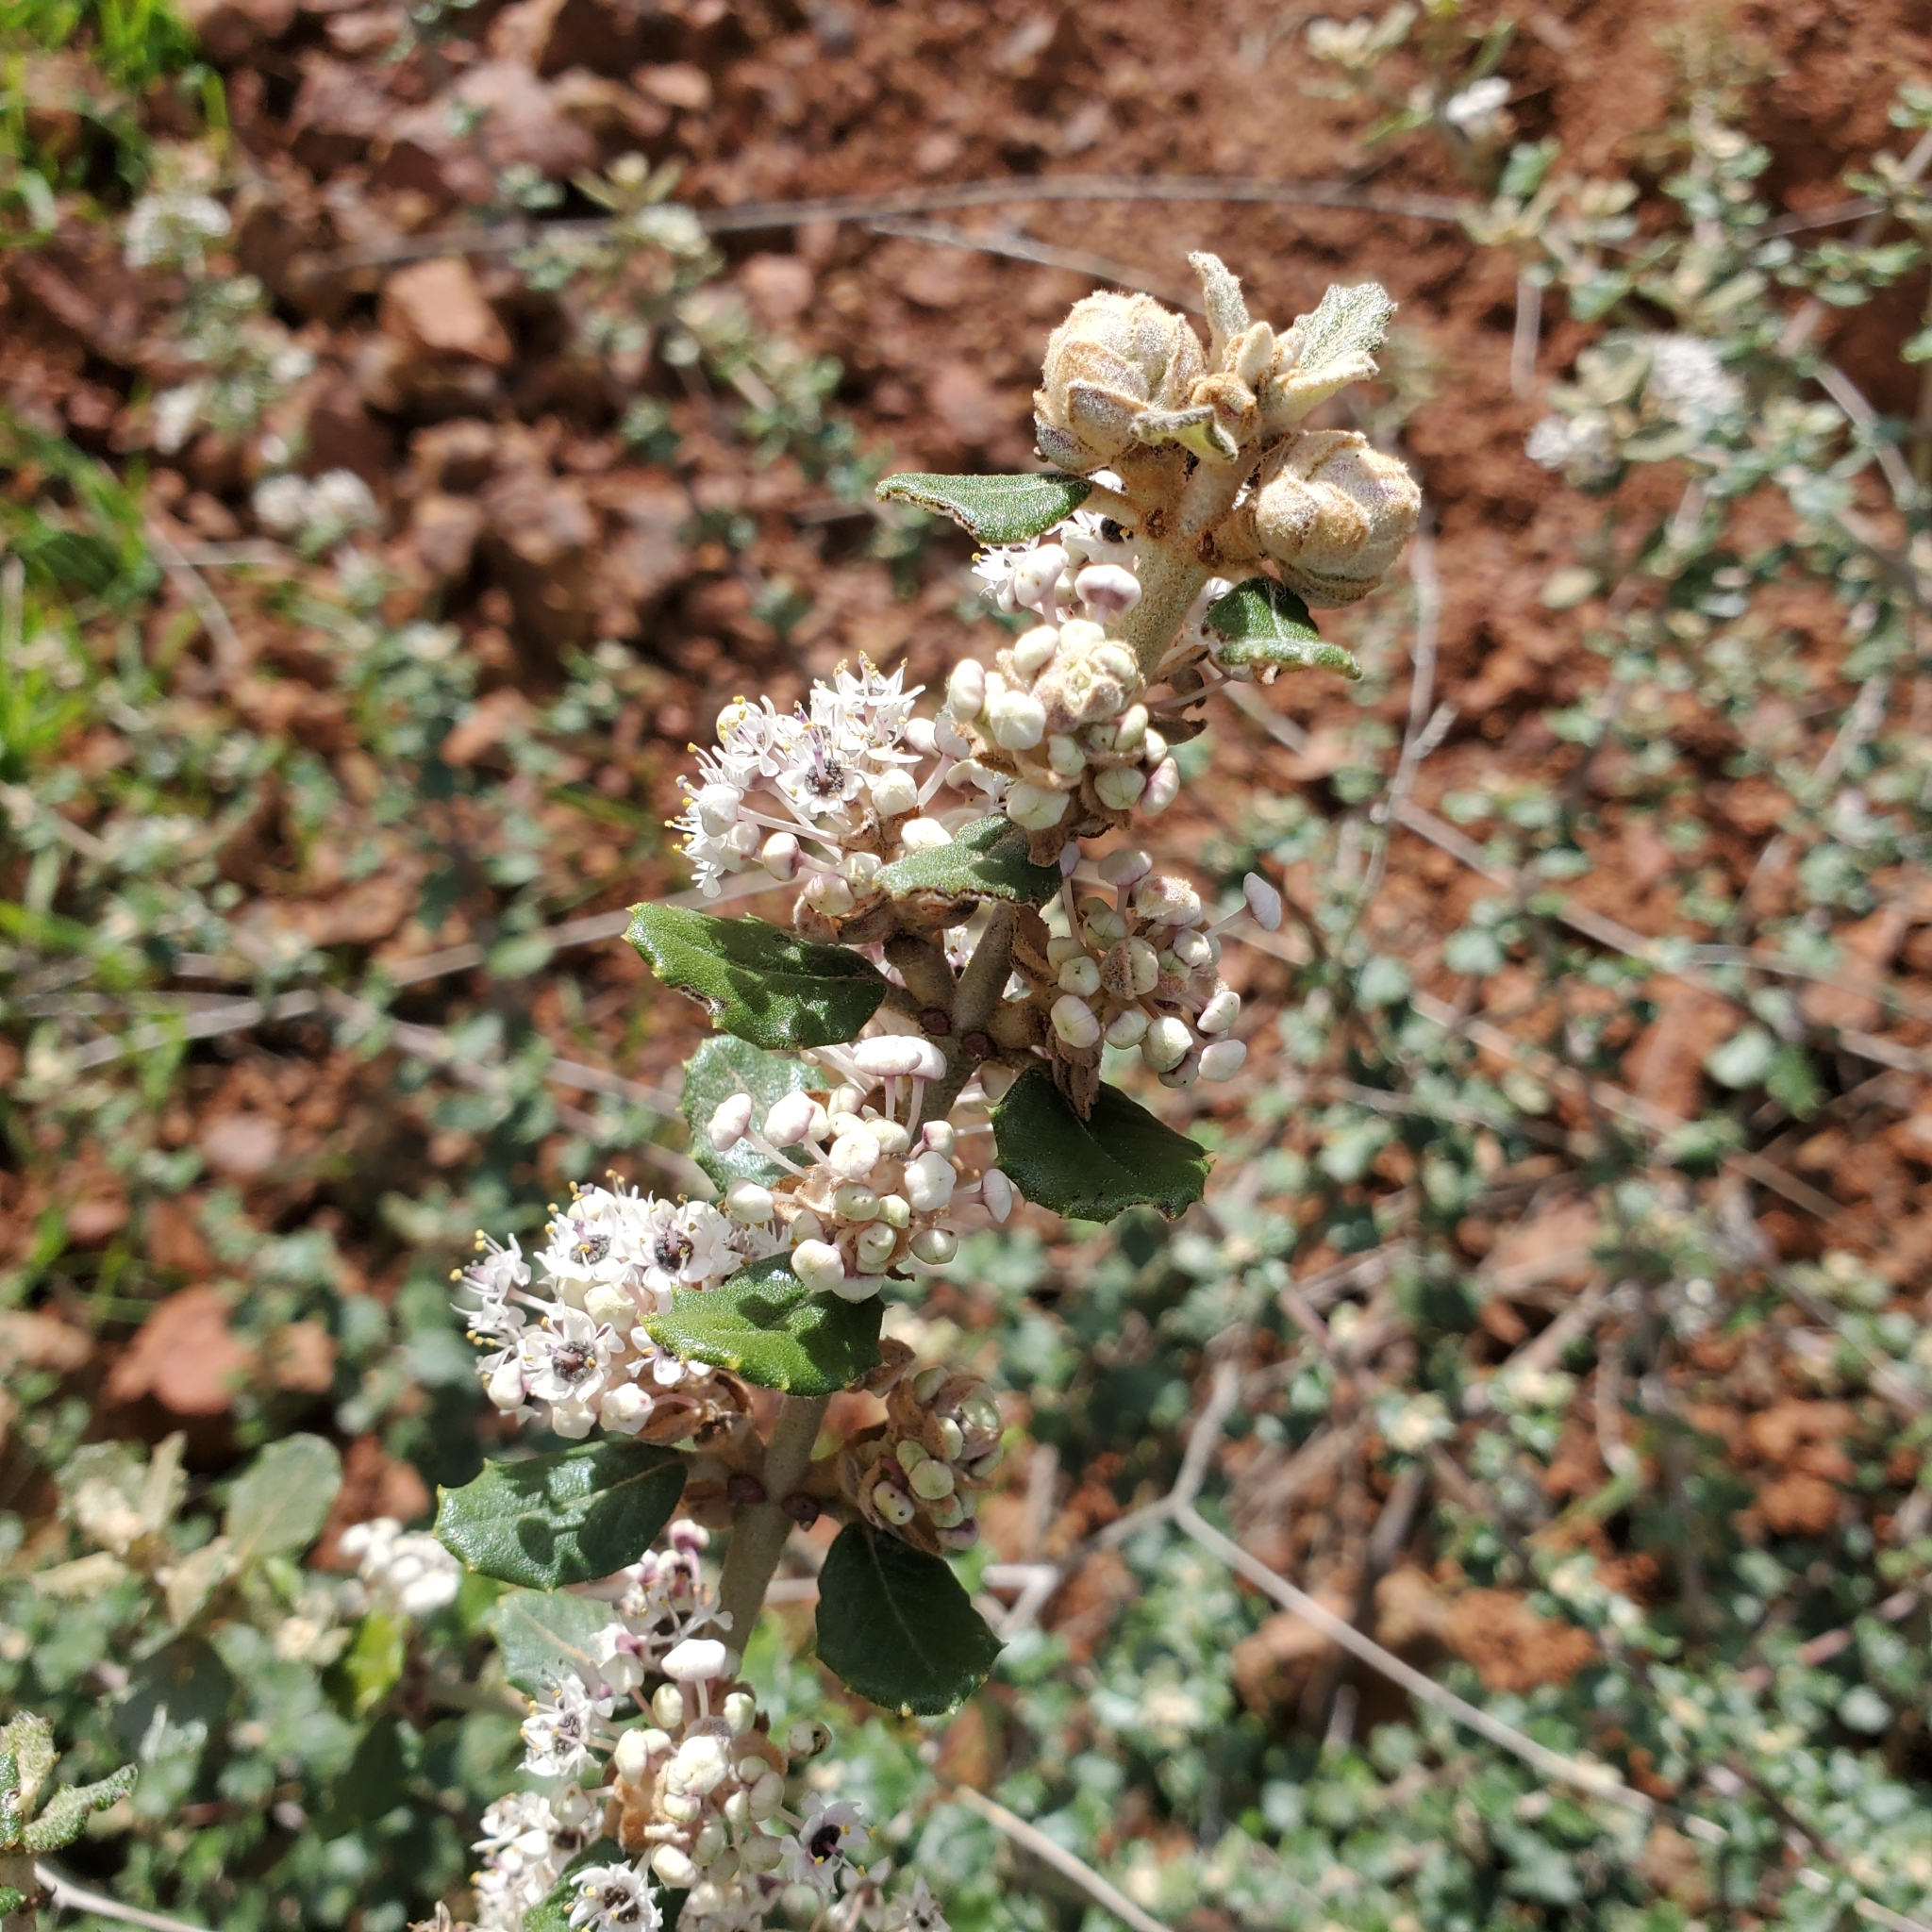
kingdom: Plantae
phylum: Tracheophyta
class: Magnoliopsida
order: Rosales
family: Rhamnaceae
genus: Ceanothus
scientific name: Ceanothus crassifolius
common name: Hoaryleaf ceanothus
